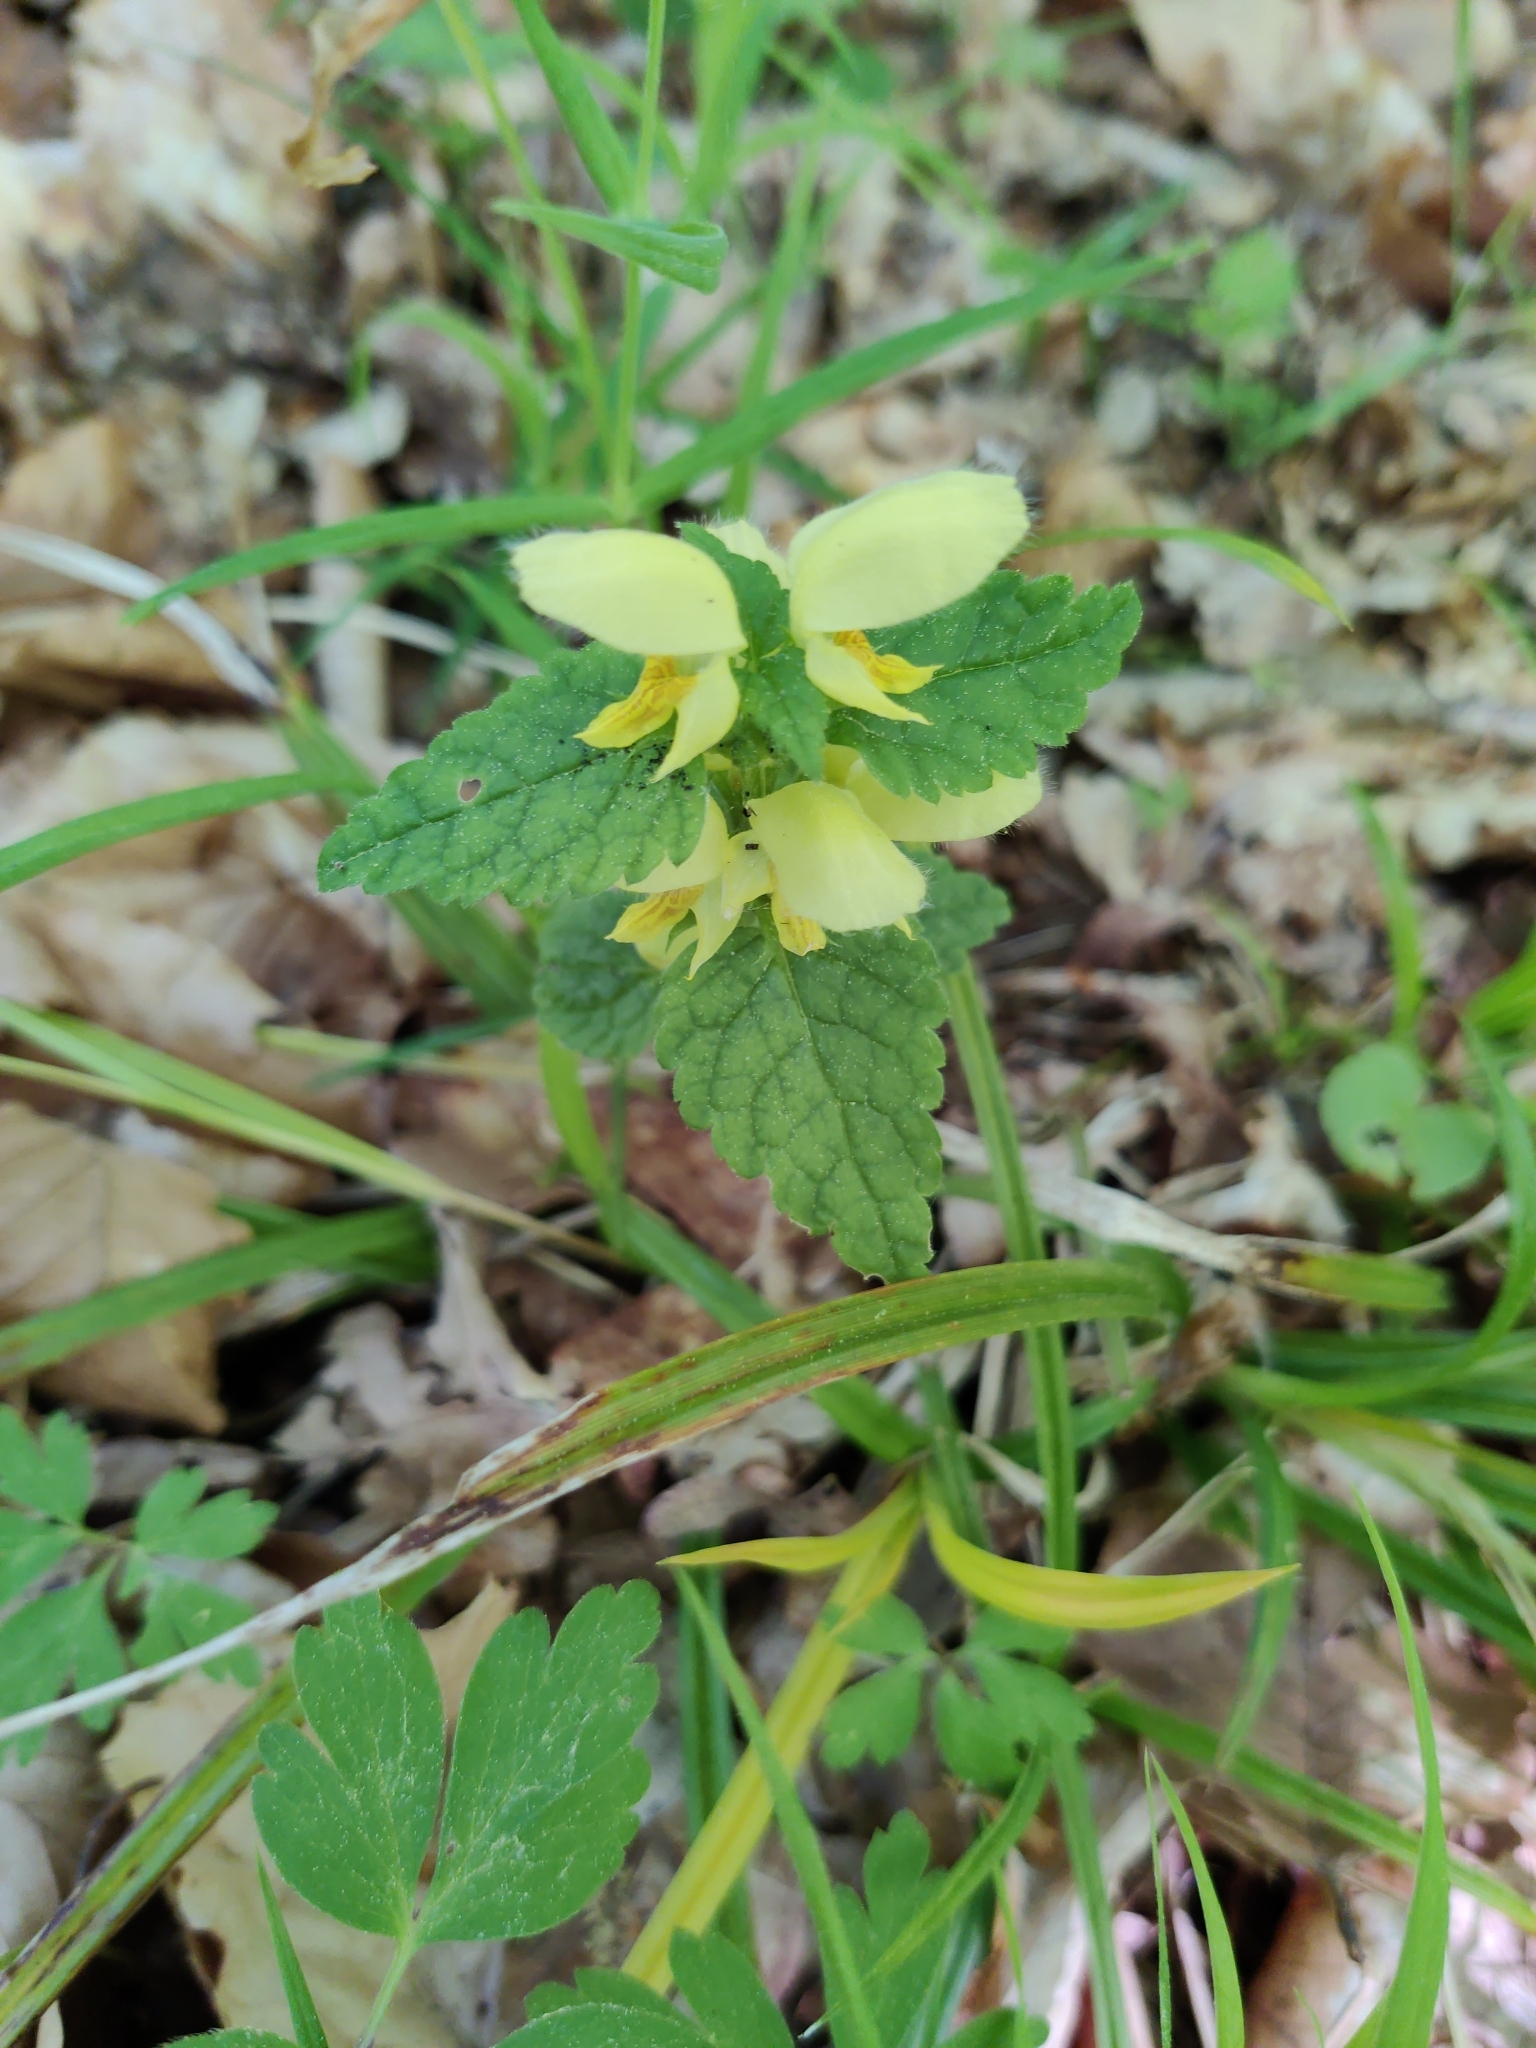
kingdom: Plantae
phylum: Tracheophyta
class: Magnoliopsida
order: Lamiales
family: Lamiaceae
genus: Lamium
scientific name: Lamium galeobdolon
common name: Yellow archangel
